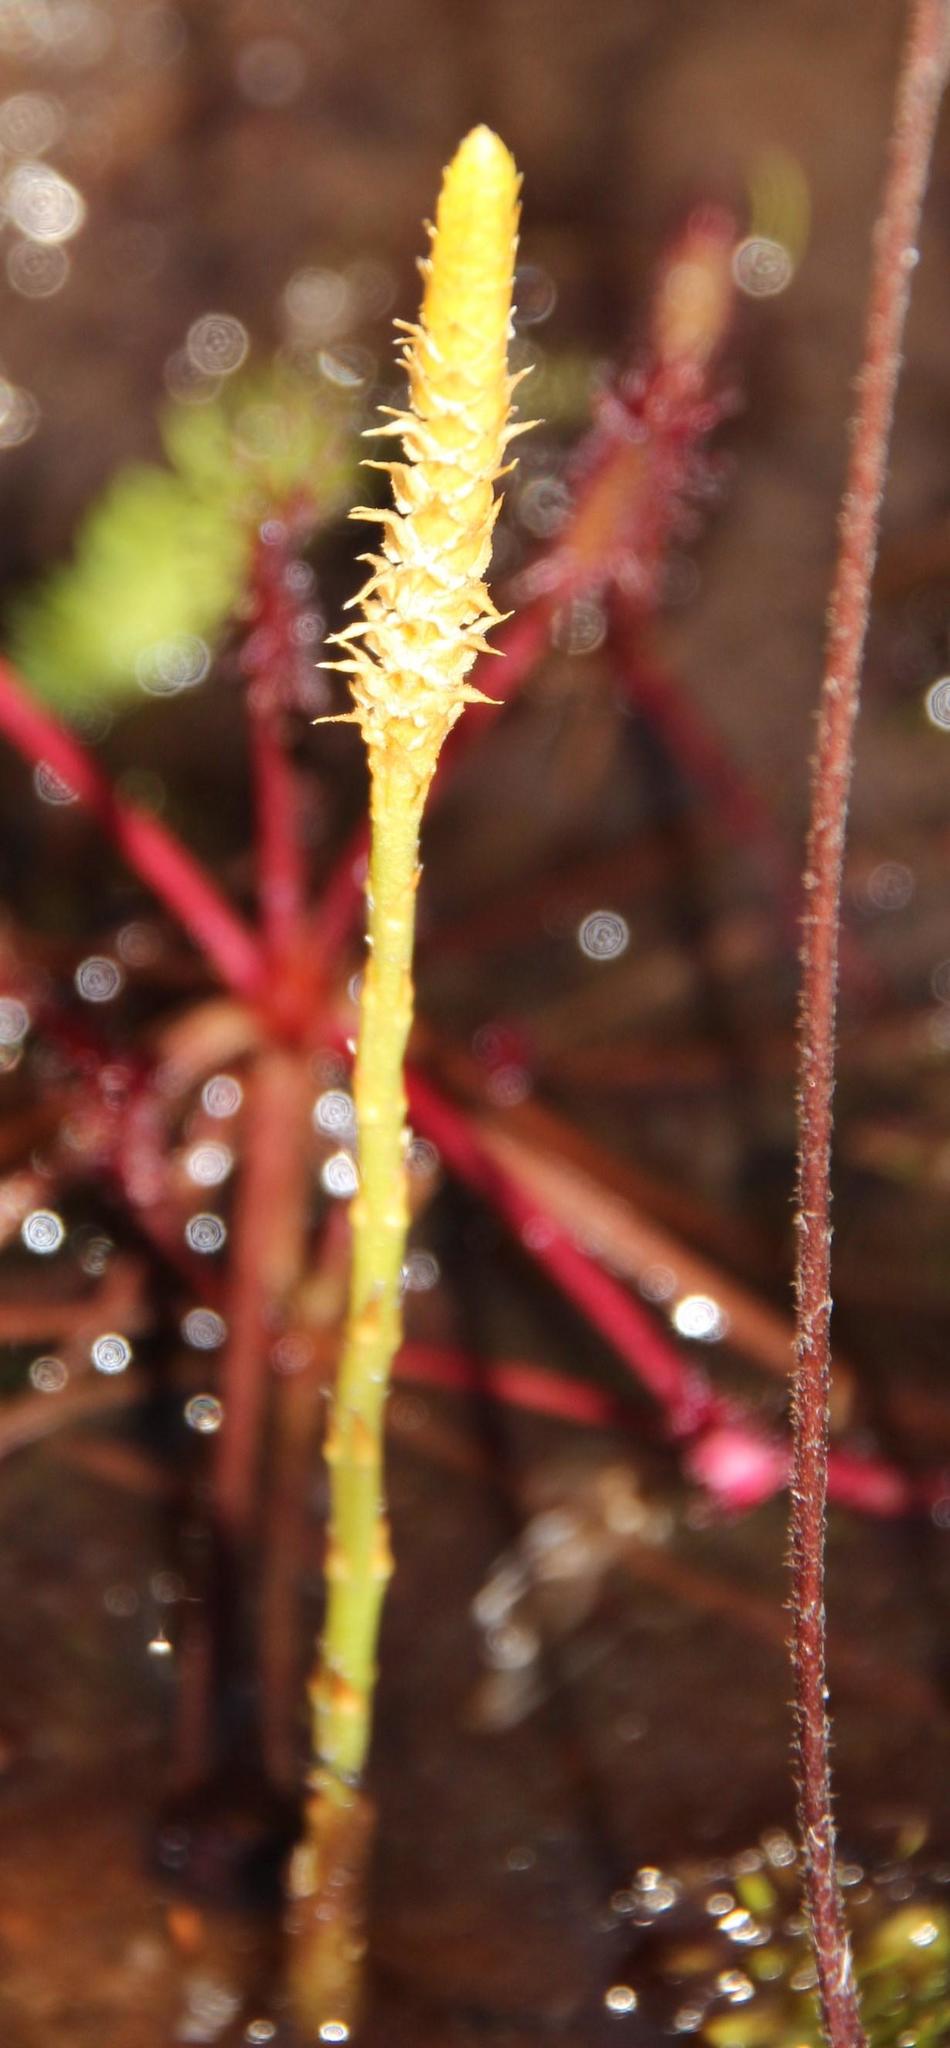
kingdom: Plantae
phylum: Tracheophyta
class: Lycopodiopsida
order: Lycopodiales
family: Lycopodiaceae
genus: Pseudolycopodiella
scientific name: Pseudolycopodiella caroliniana
